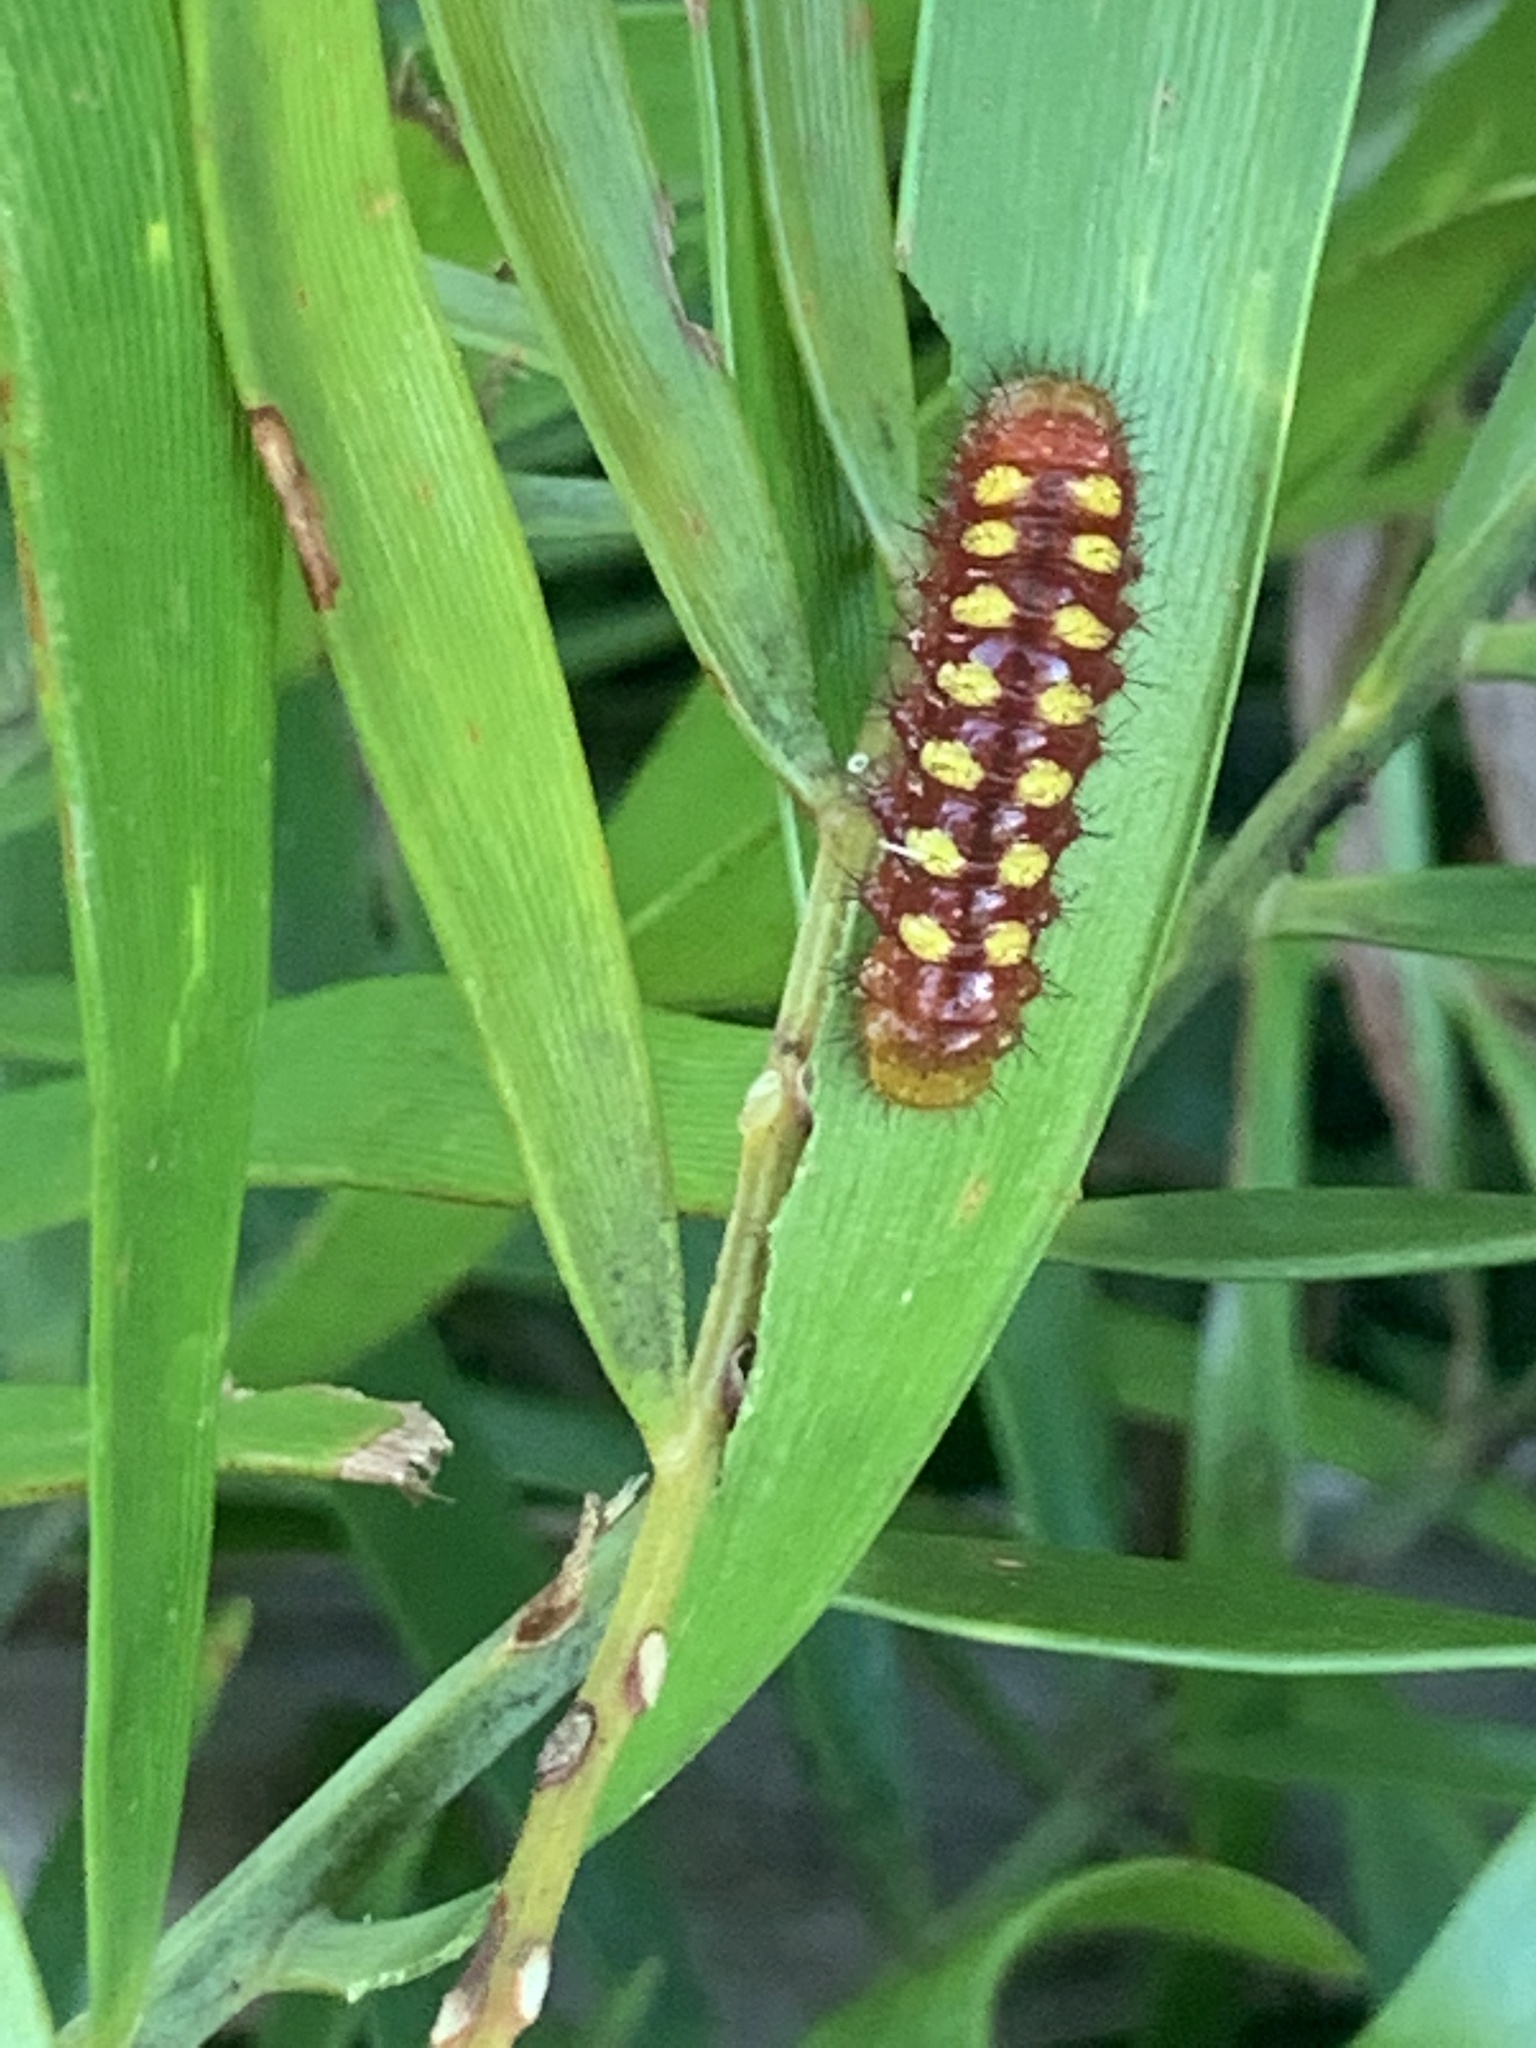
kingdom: Animalia
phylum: Arthropoda
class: Insecta
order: Lepidoptera
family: Lycaenidae
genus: Eumaeus
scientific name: Eumaeus atala
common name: Atala
